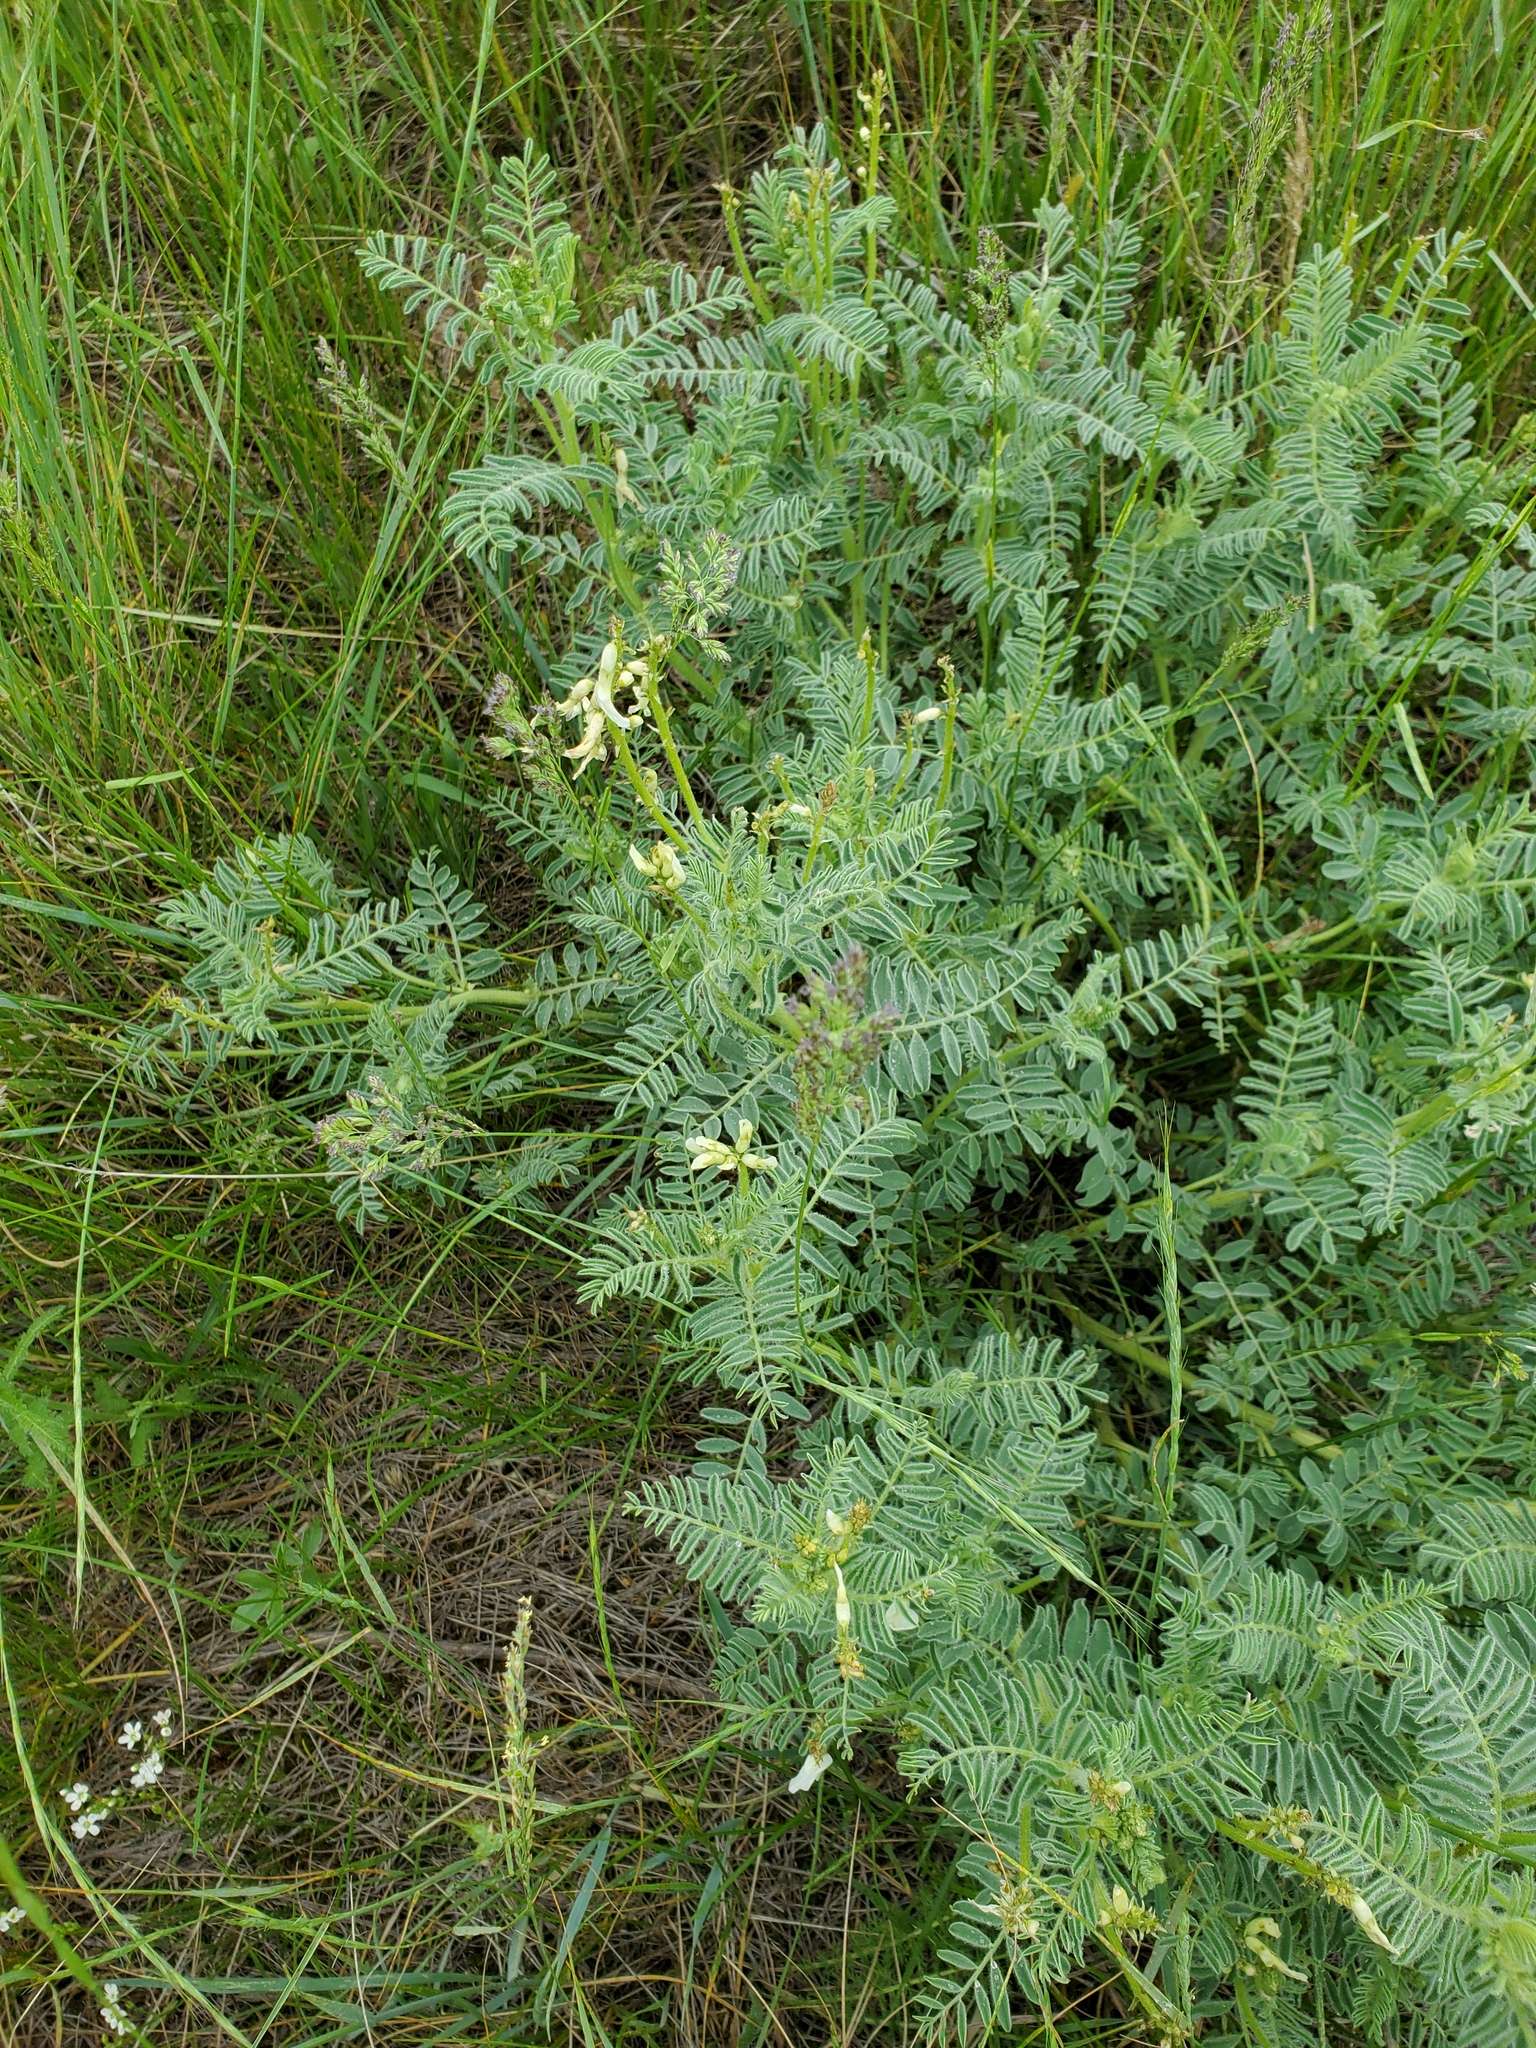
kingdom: Plantae
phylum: Tracheophyta
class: Magnoliopsida
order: Fabales
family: Fabaceae
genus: Astragalus
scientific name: Astragalus drummondii
